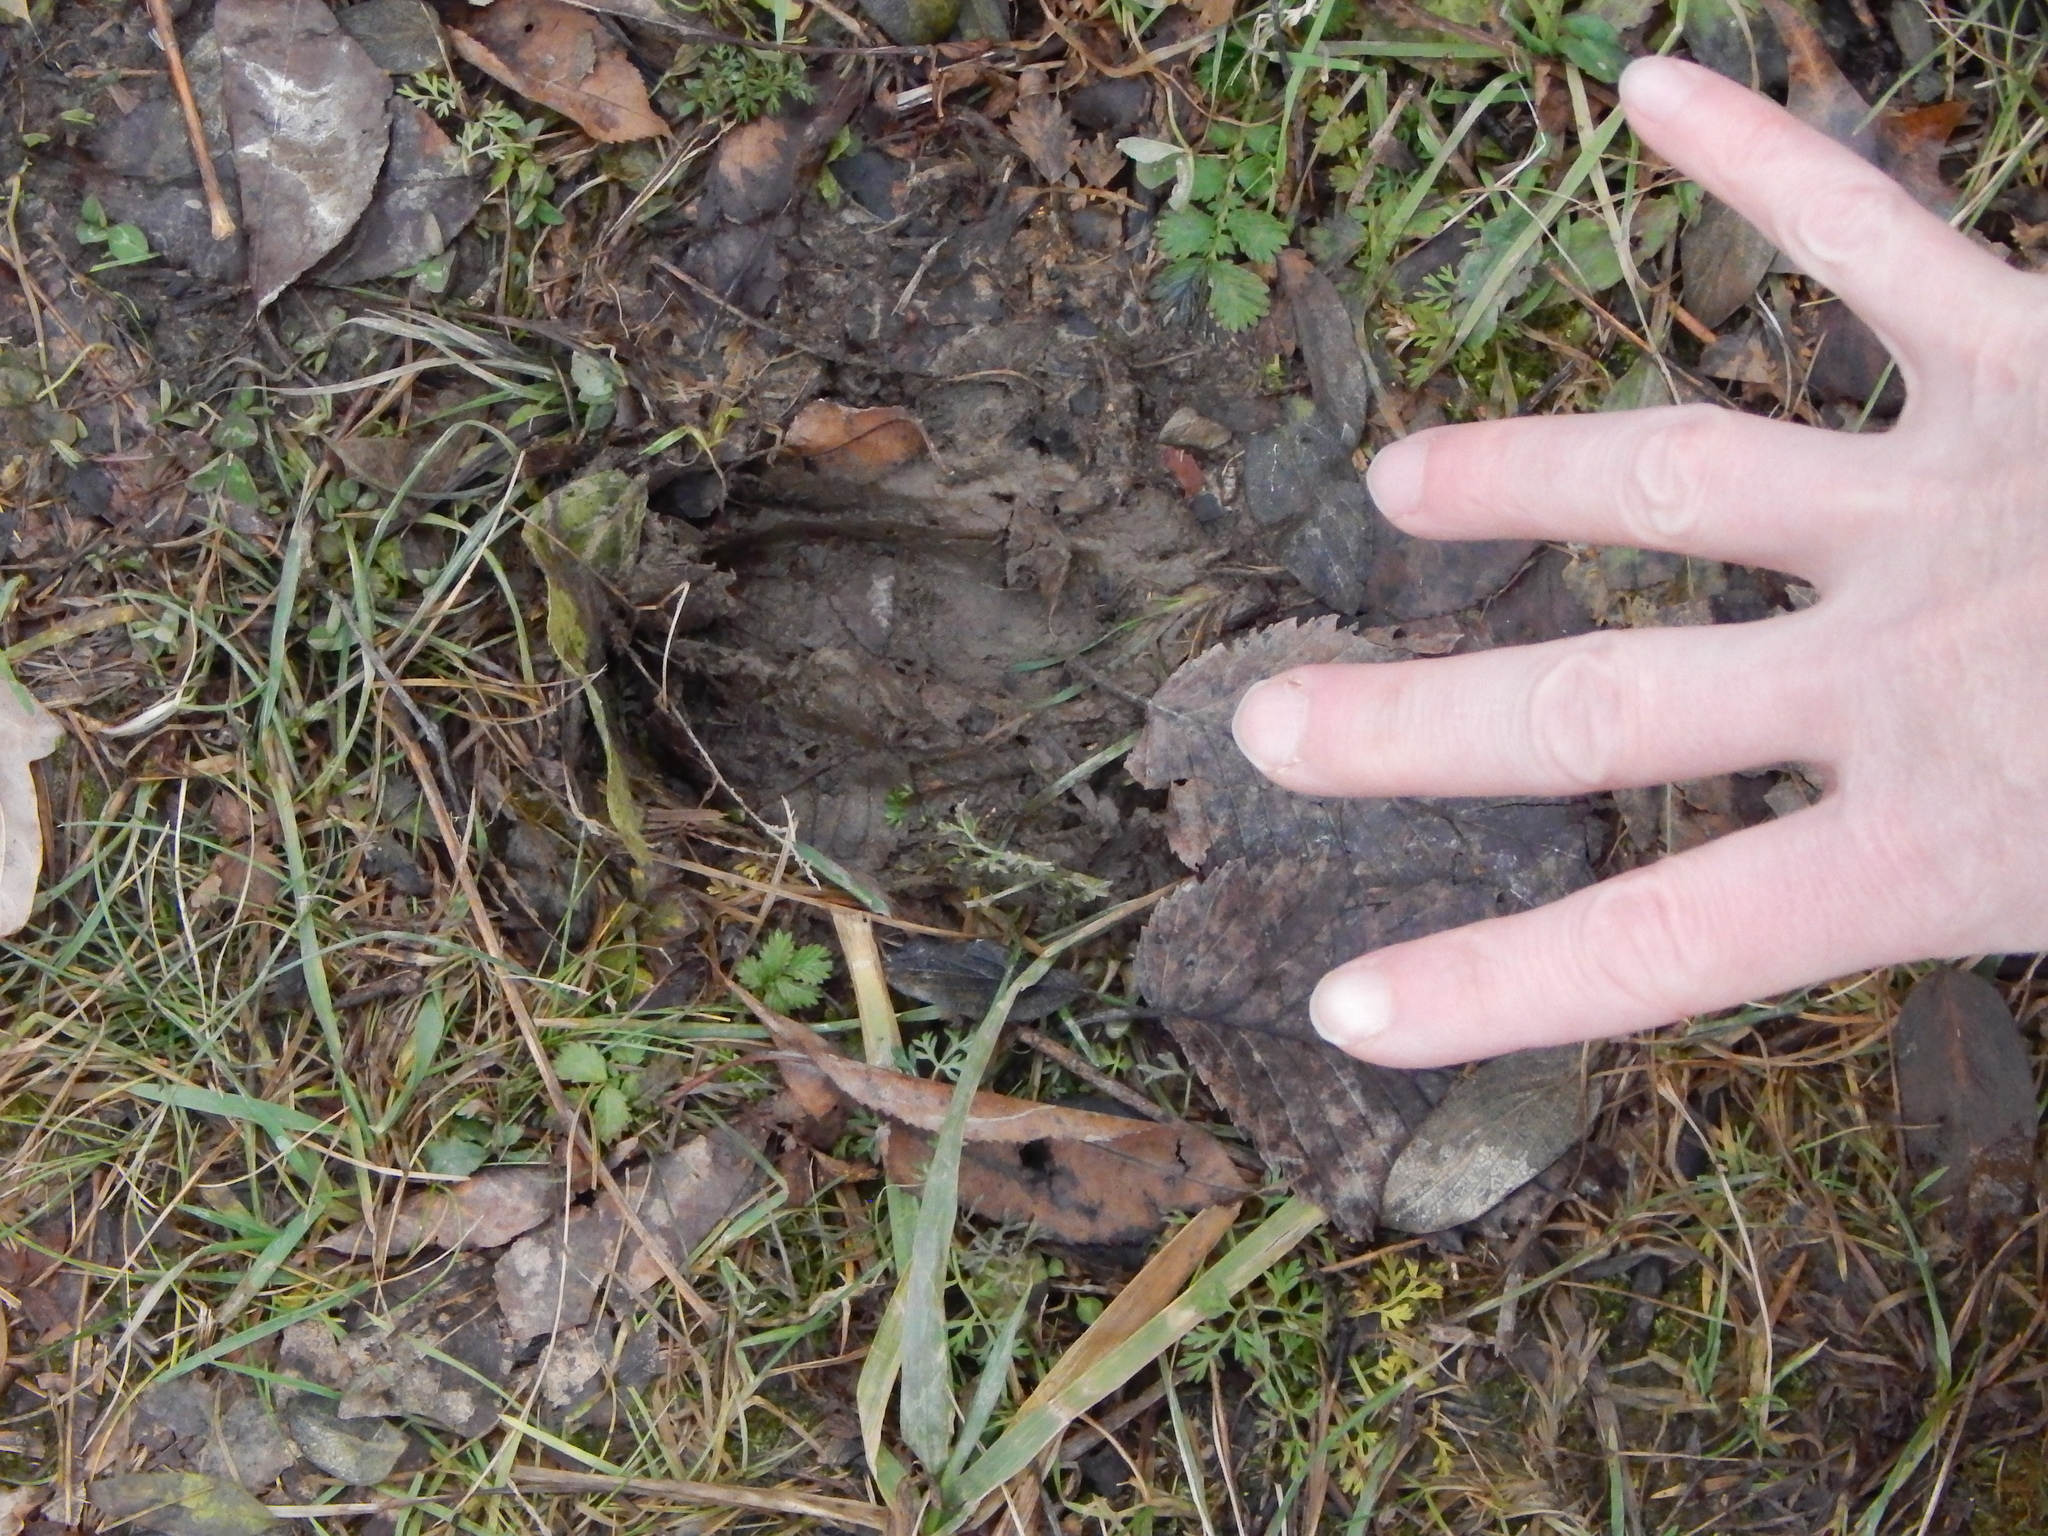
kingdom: Animalia
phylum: Chordata
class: Mammalia
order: Artiodactyla
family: Cervidae
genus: Odocoileus
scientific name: Odocoileus virginianus
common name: White-tailed deer
